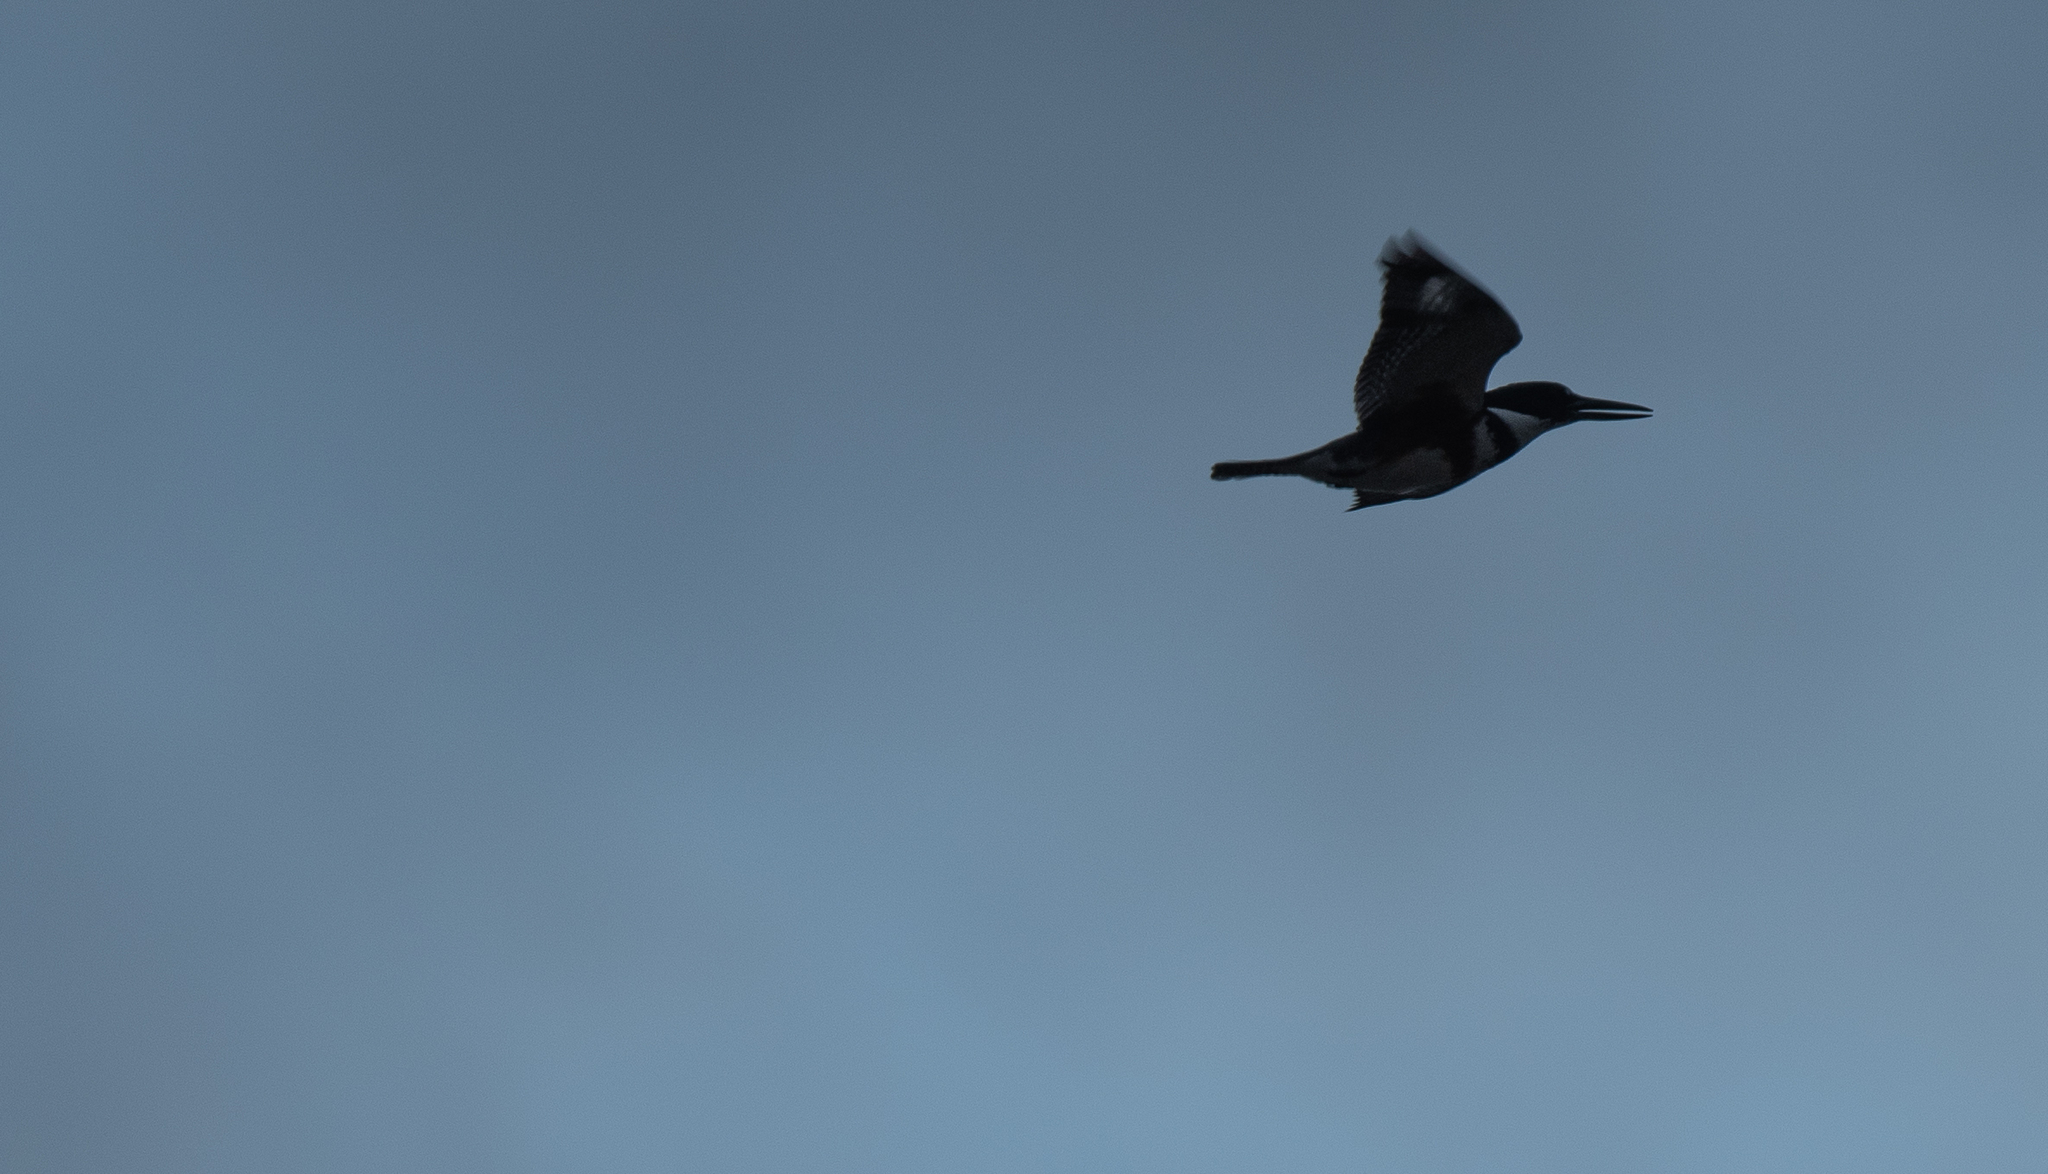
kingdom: Animalia
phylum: Chordata
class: Aves
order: Coraciiformes
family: Alcedinidae
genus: Megaceryle
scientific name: Megaceryle alcyon
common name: Belted kingfisher
